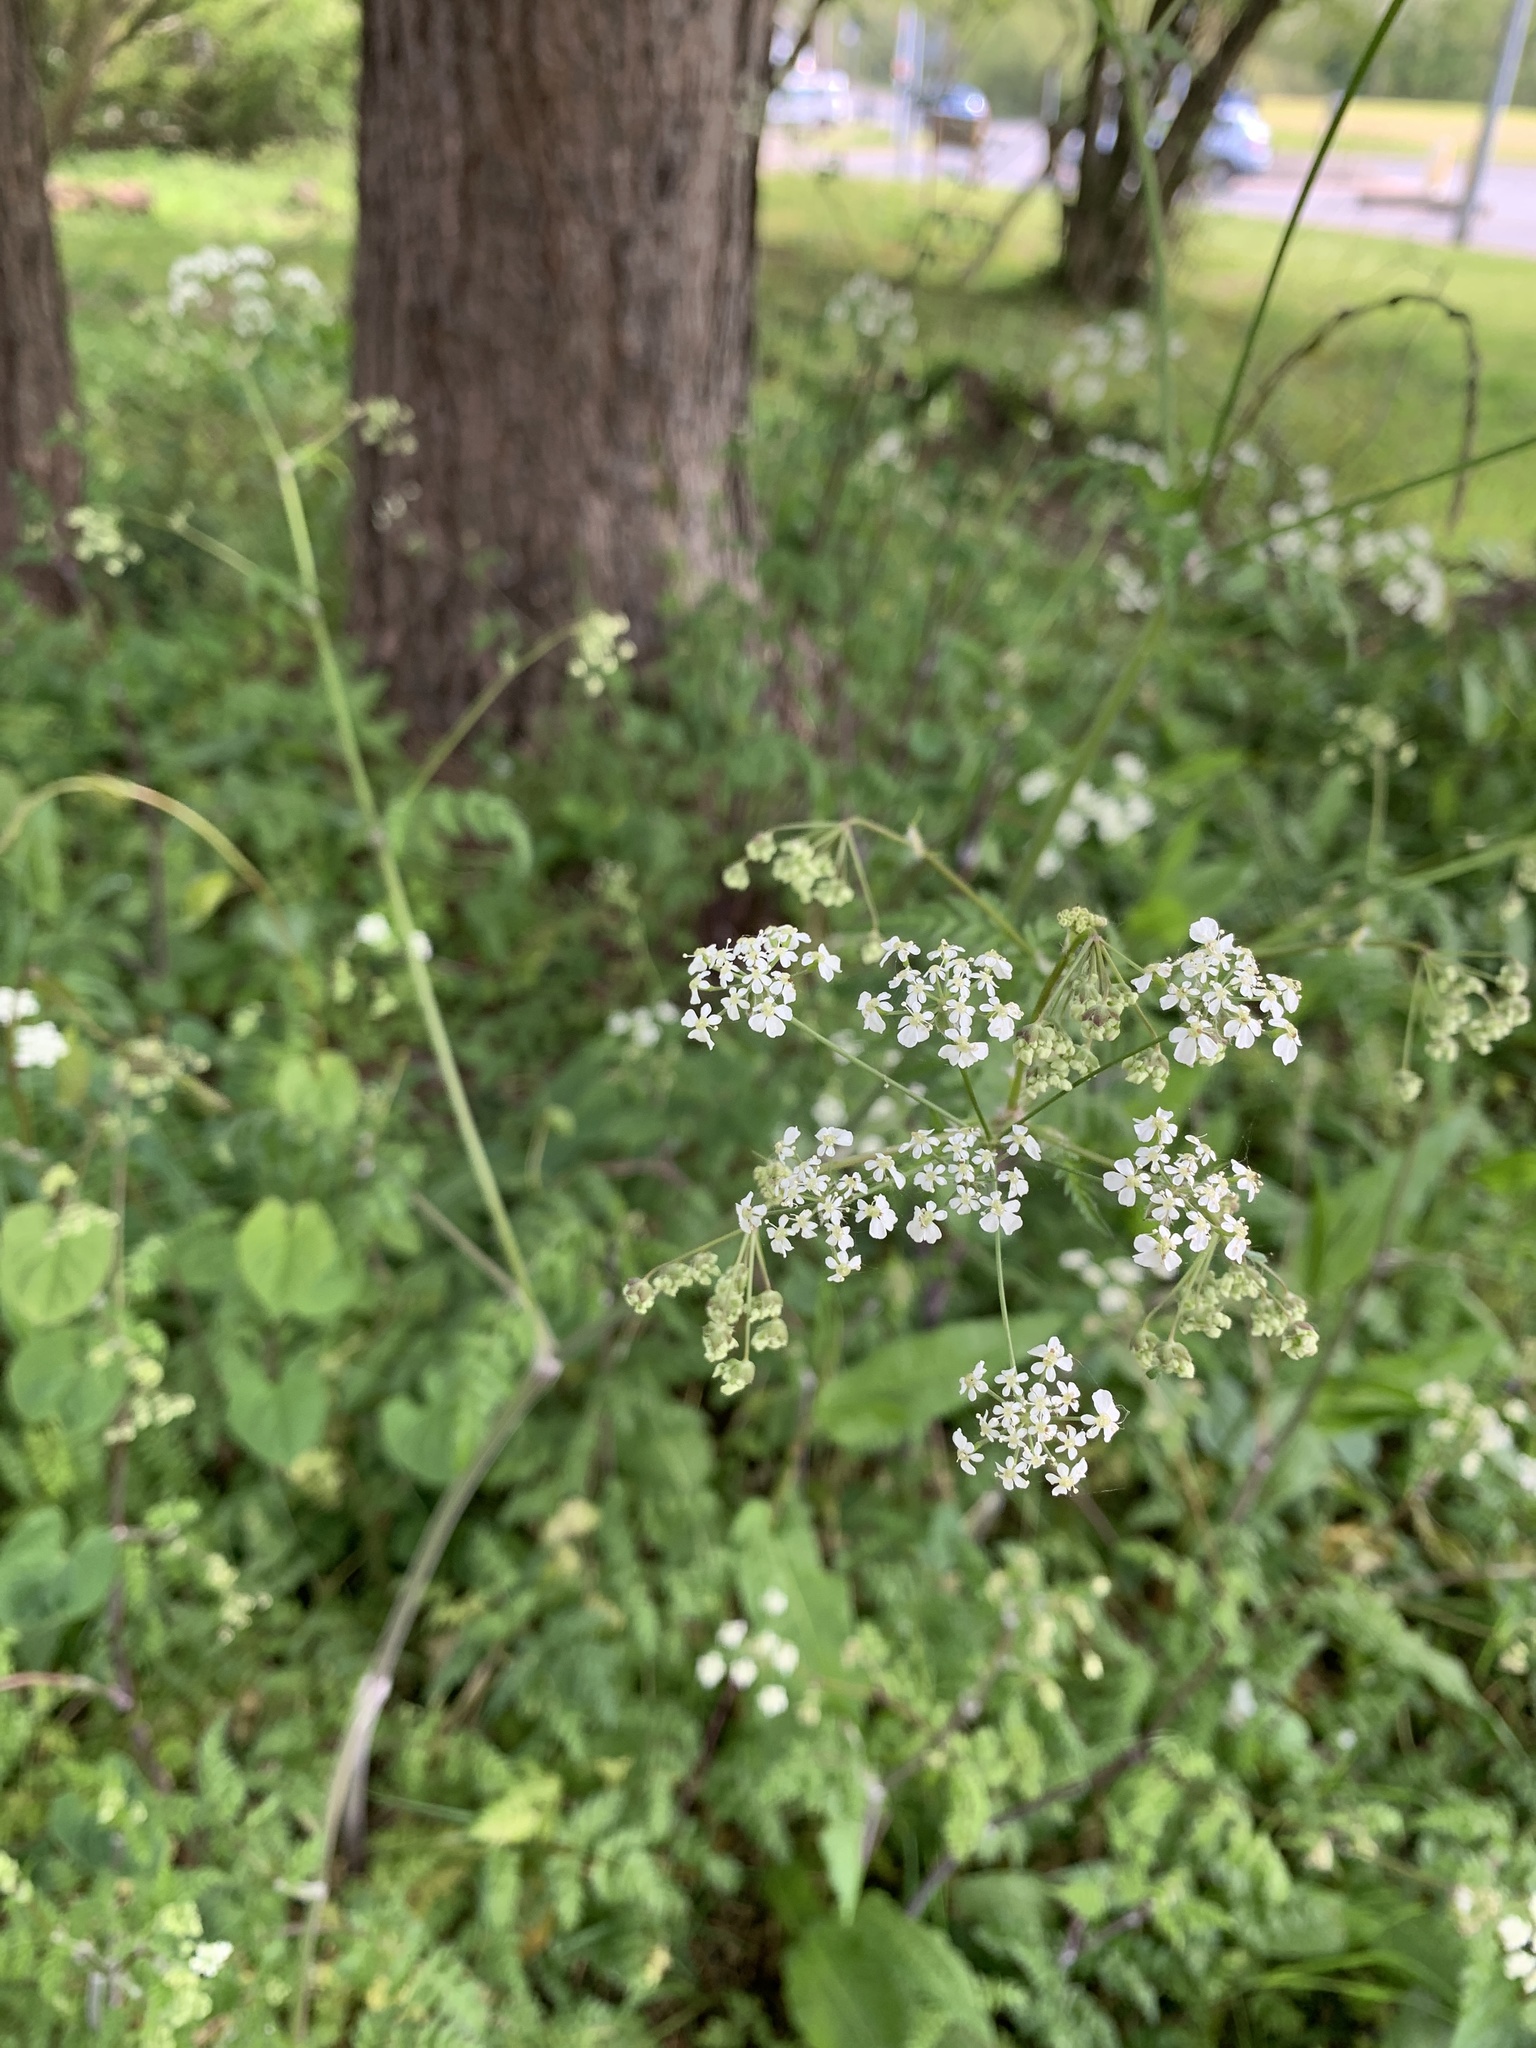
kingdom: Plantae
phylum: Tracheophyta
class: Magnoliopsida
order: Apiales
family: Apiaceae
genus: Anthriscus
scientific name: Anthriscus sylvestris
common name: Cow parsley
